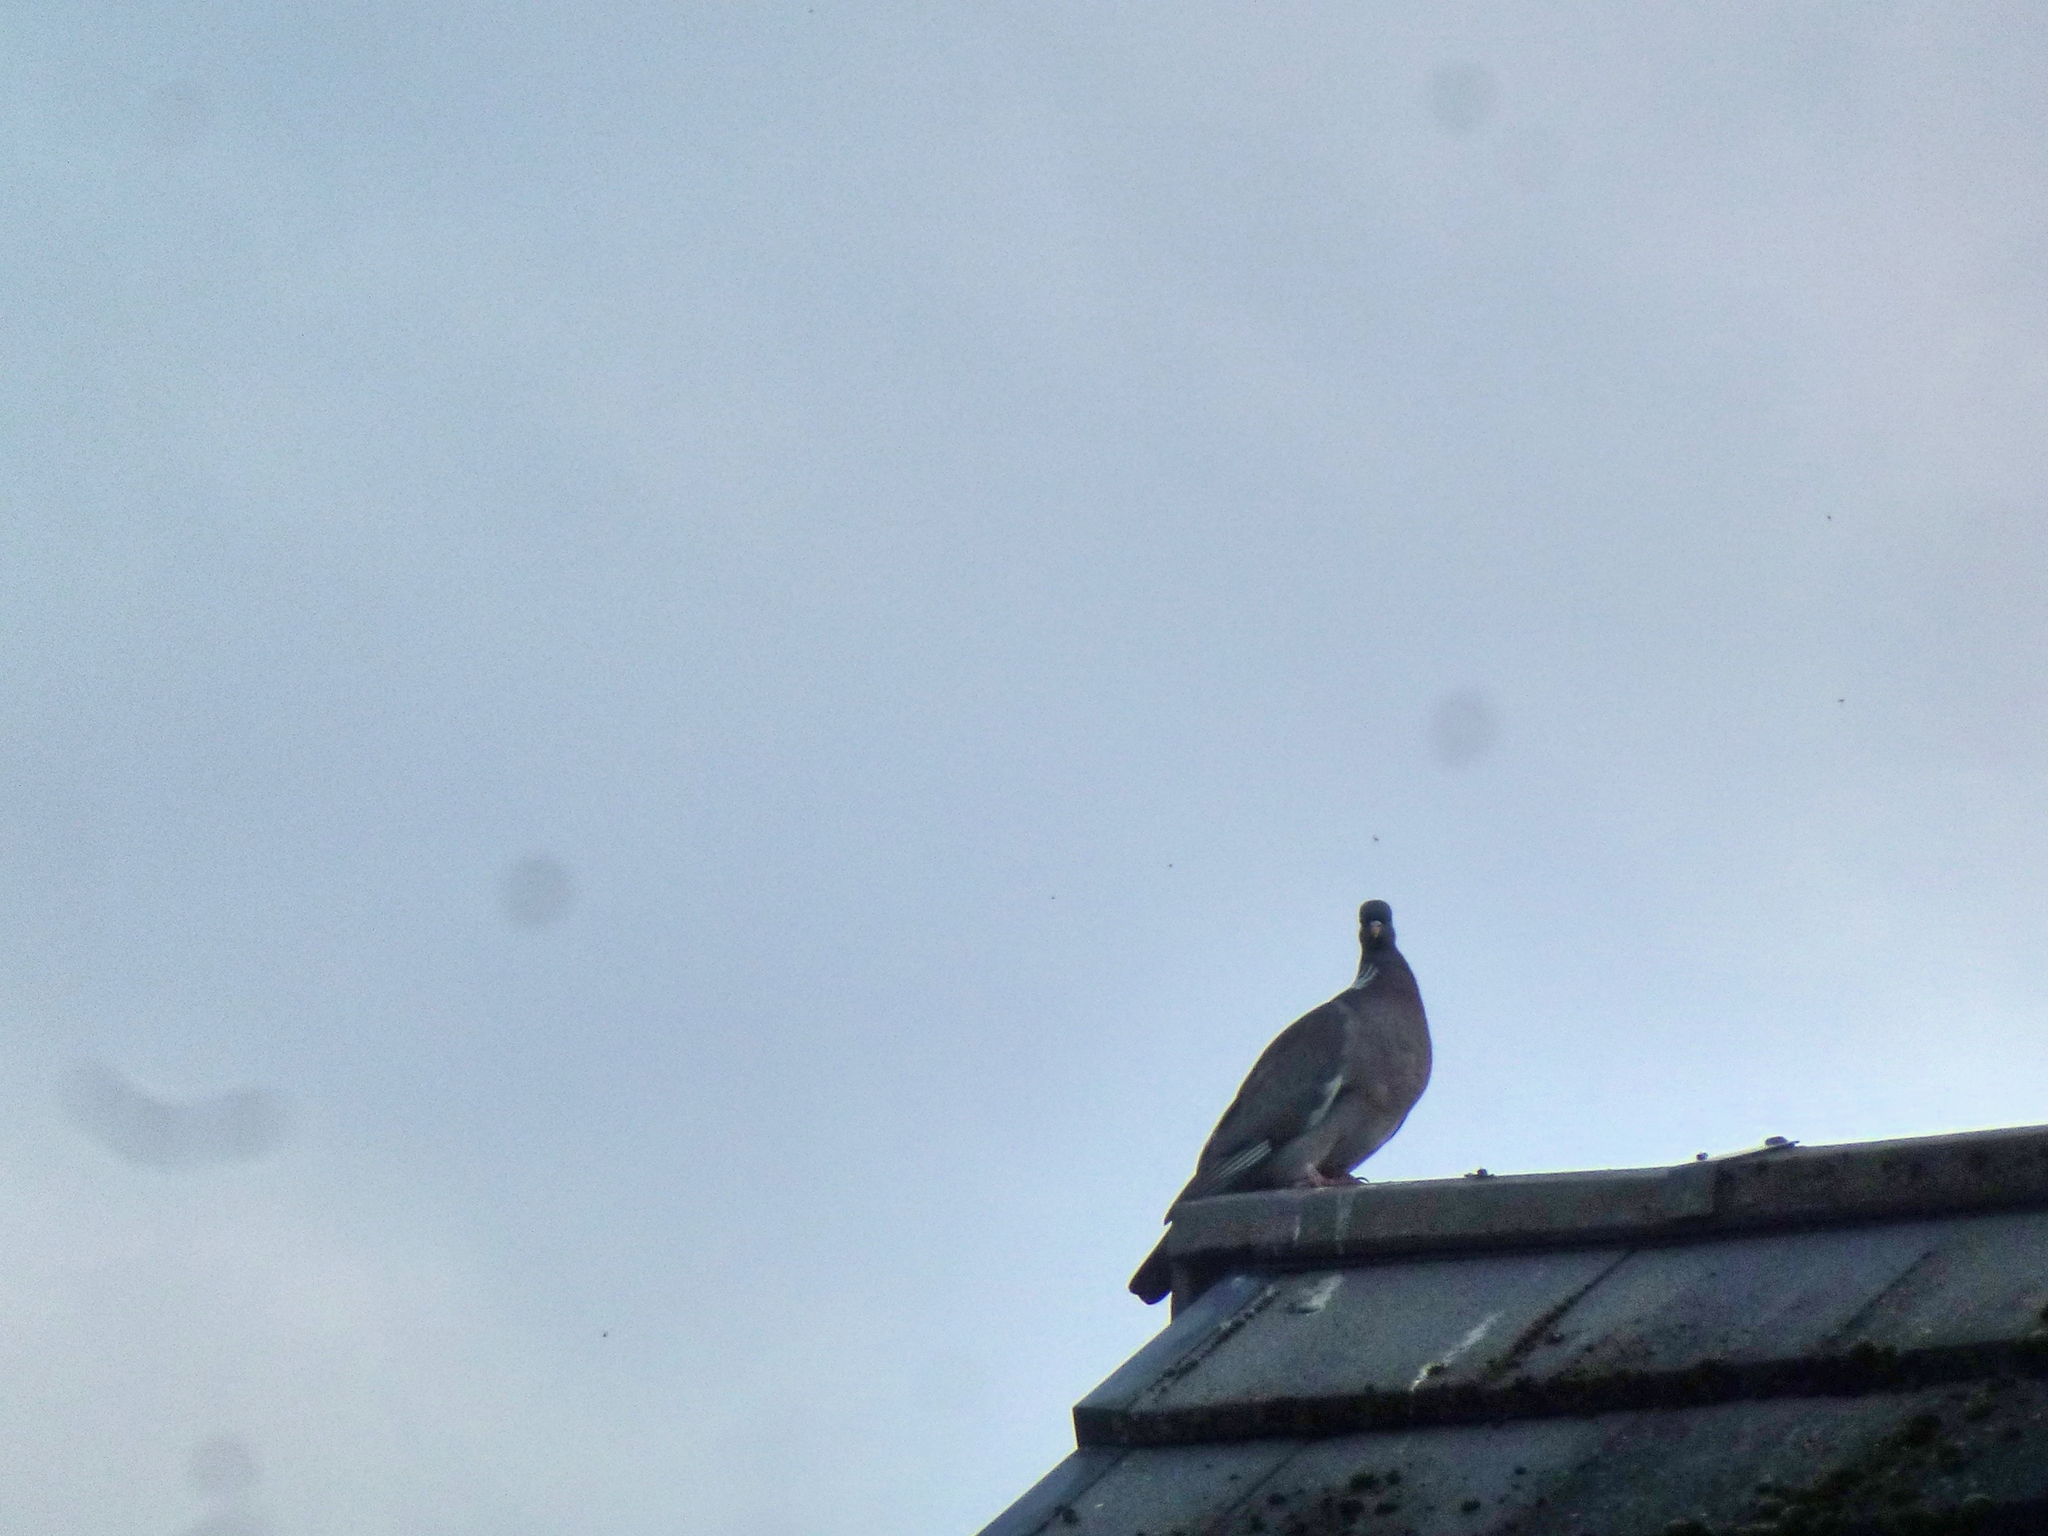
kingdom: Animalia
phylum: Chordata
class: Aves
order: Columbiformes
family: Columbidae
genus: Columba
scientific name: Columba palumbus
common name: Common wood pigeon
